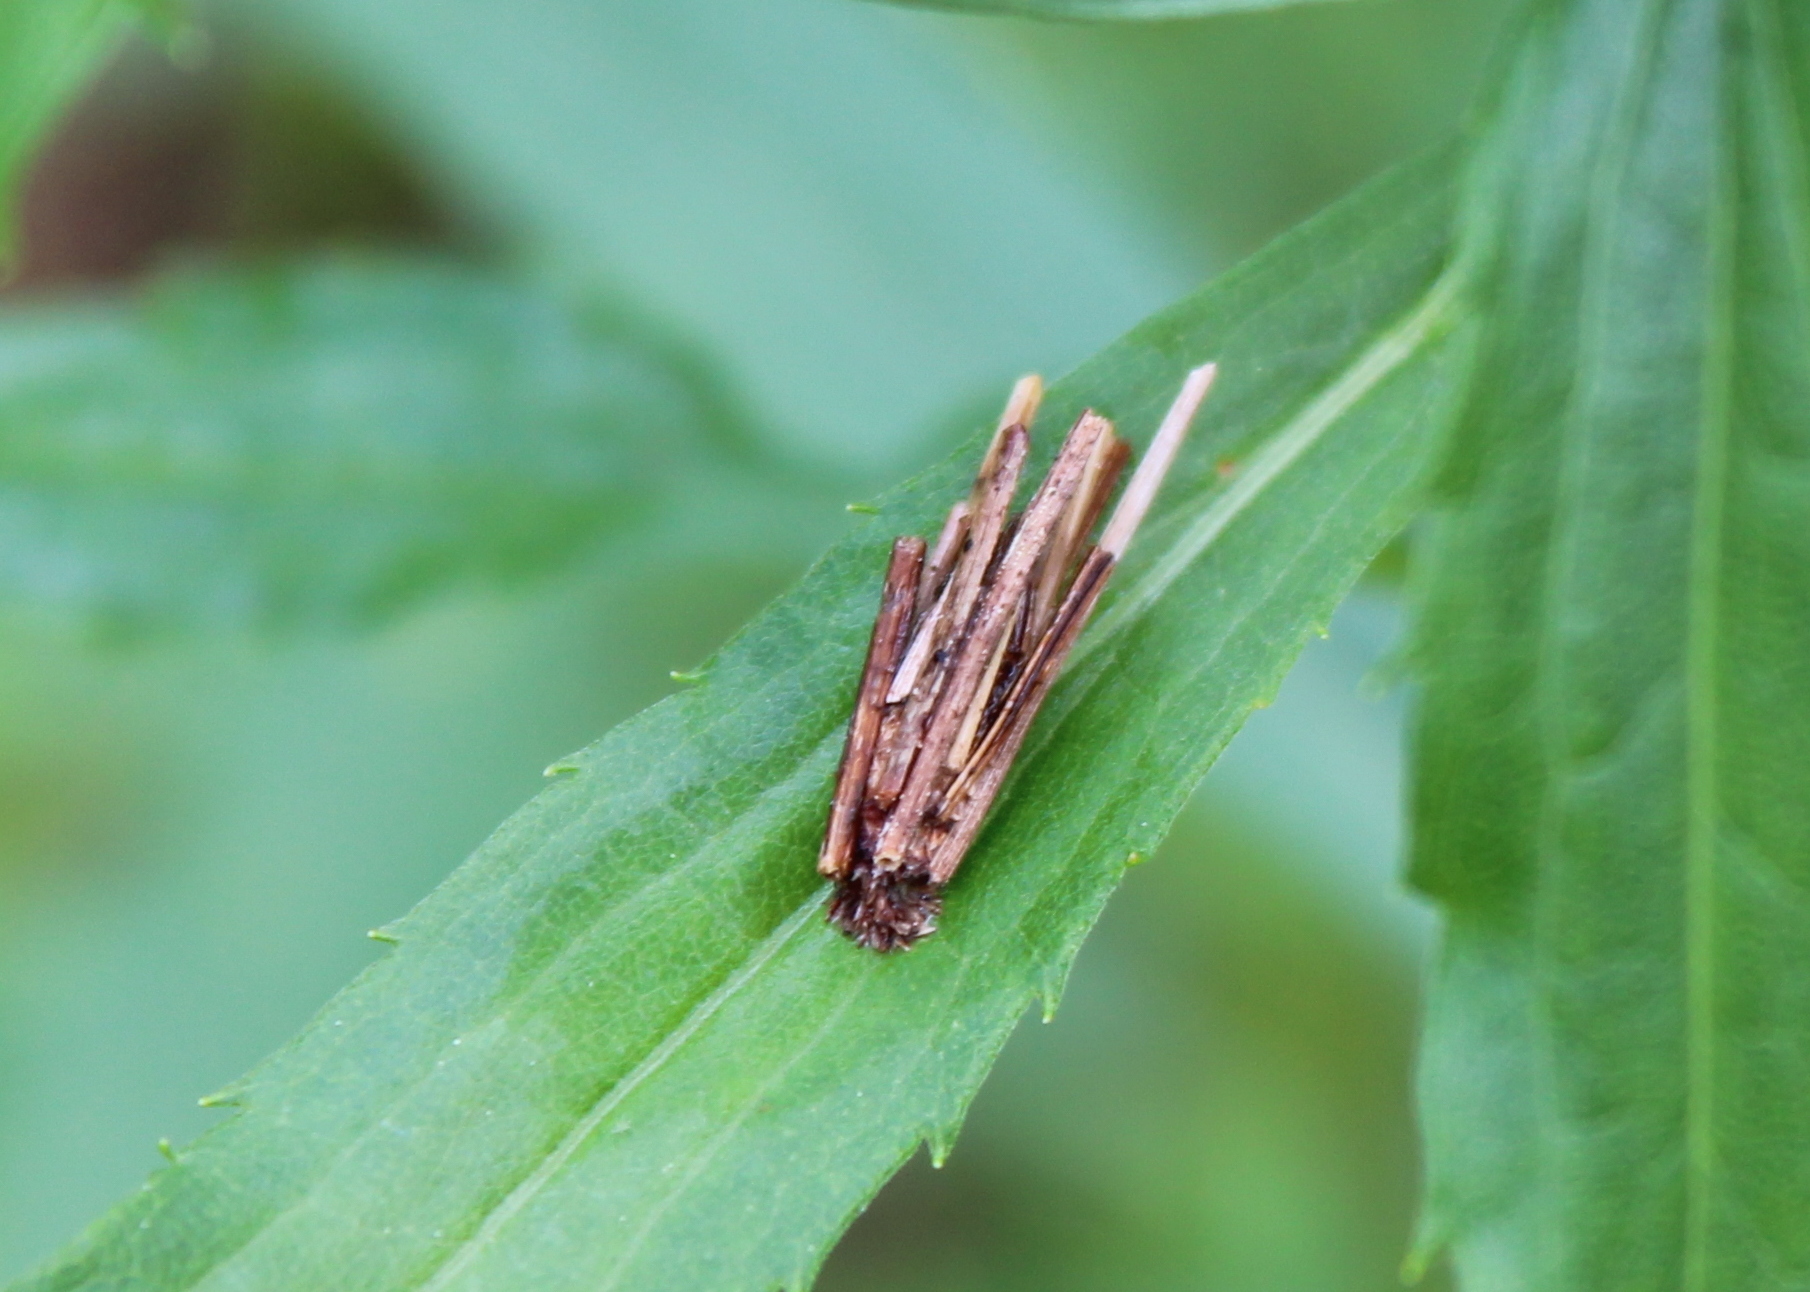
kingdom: Animalia
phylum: Arthropoda
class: Insecta
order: Lepidoptera
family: Psychidae
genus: Psyche
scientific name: Psyche casta
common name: Common sweep
